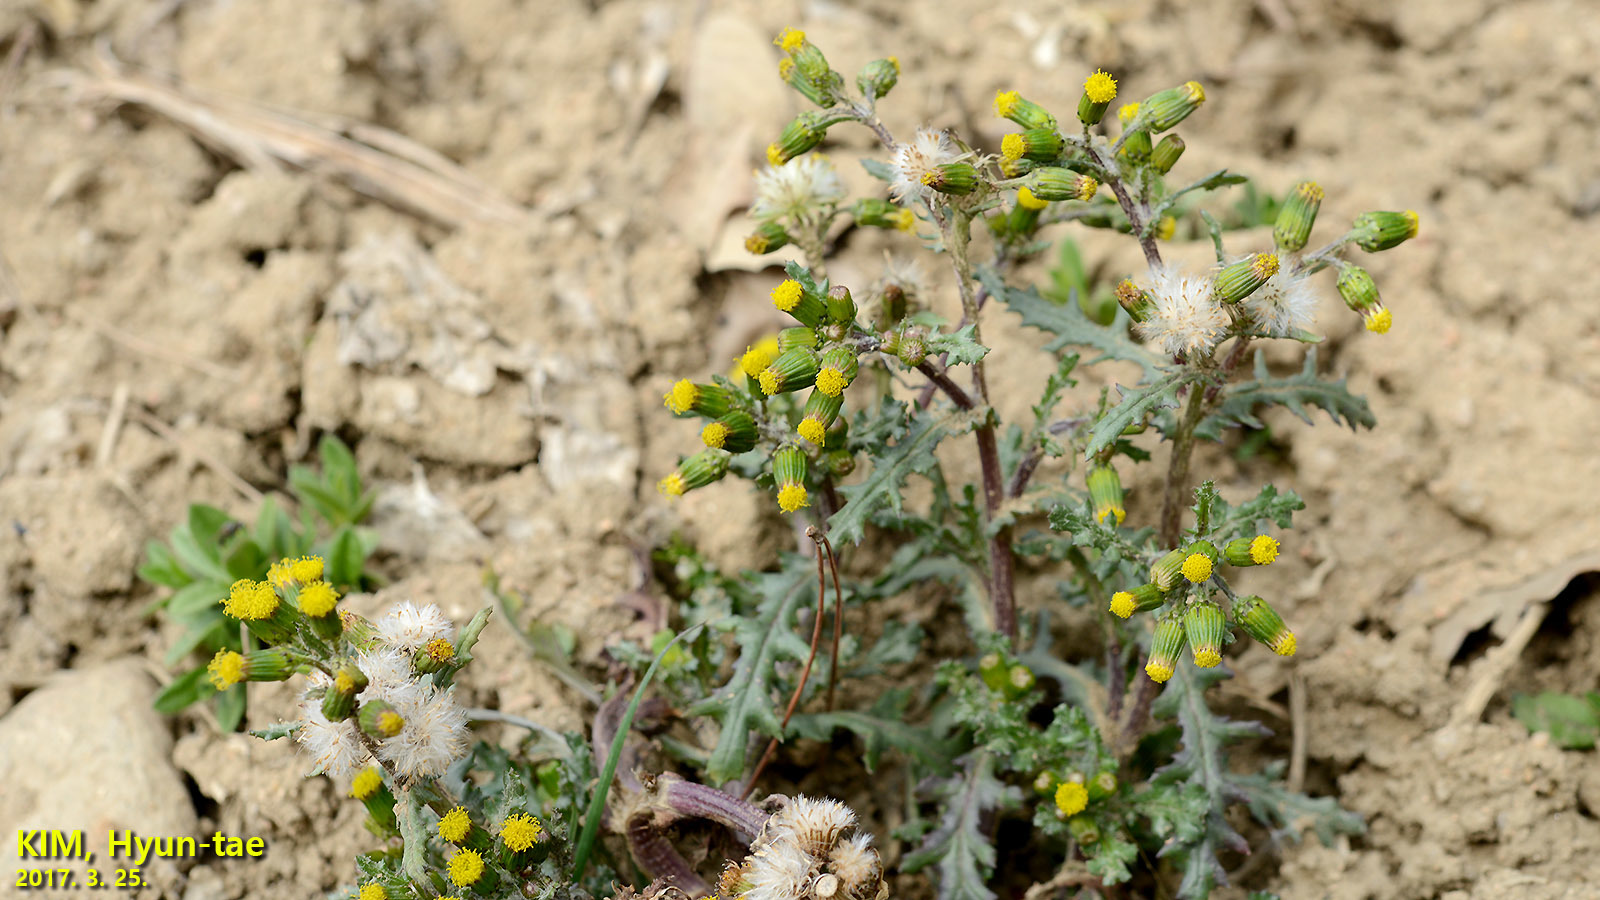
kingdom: Plantae
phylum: Tracheophyta
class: Magnoliopsida
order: Asterales
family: Asteraceae
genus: Senecio
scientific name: Senecio vulgaris
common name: Old-man-in-the-spring
